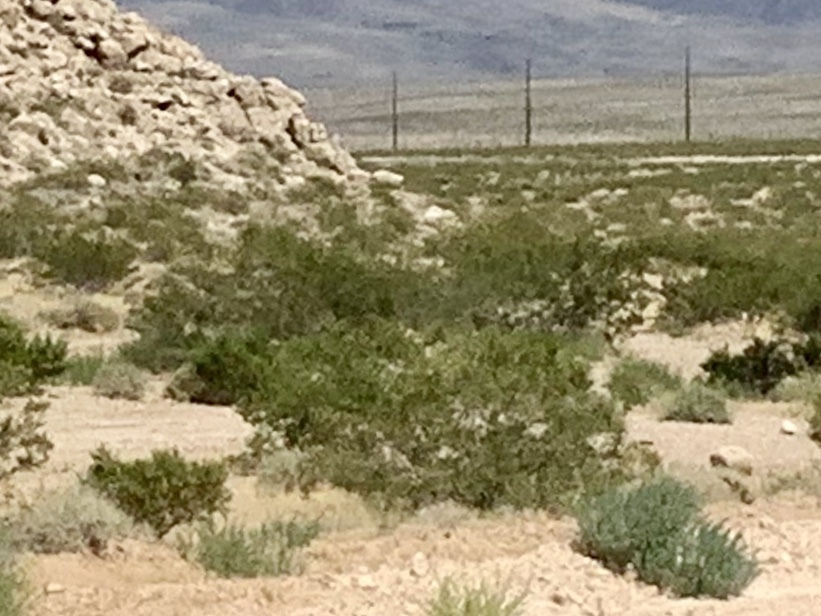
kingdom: Plantae
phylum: Tracheophyta
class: Magnoliopsida
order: Zygophyllales
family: Zygophyllaceae
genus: Larrea
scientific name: Larrea tridentata
